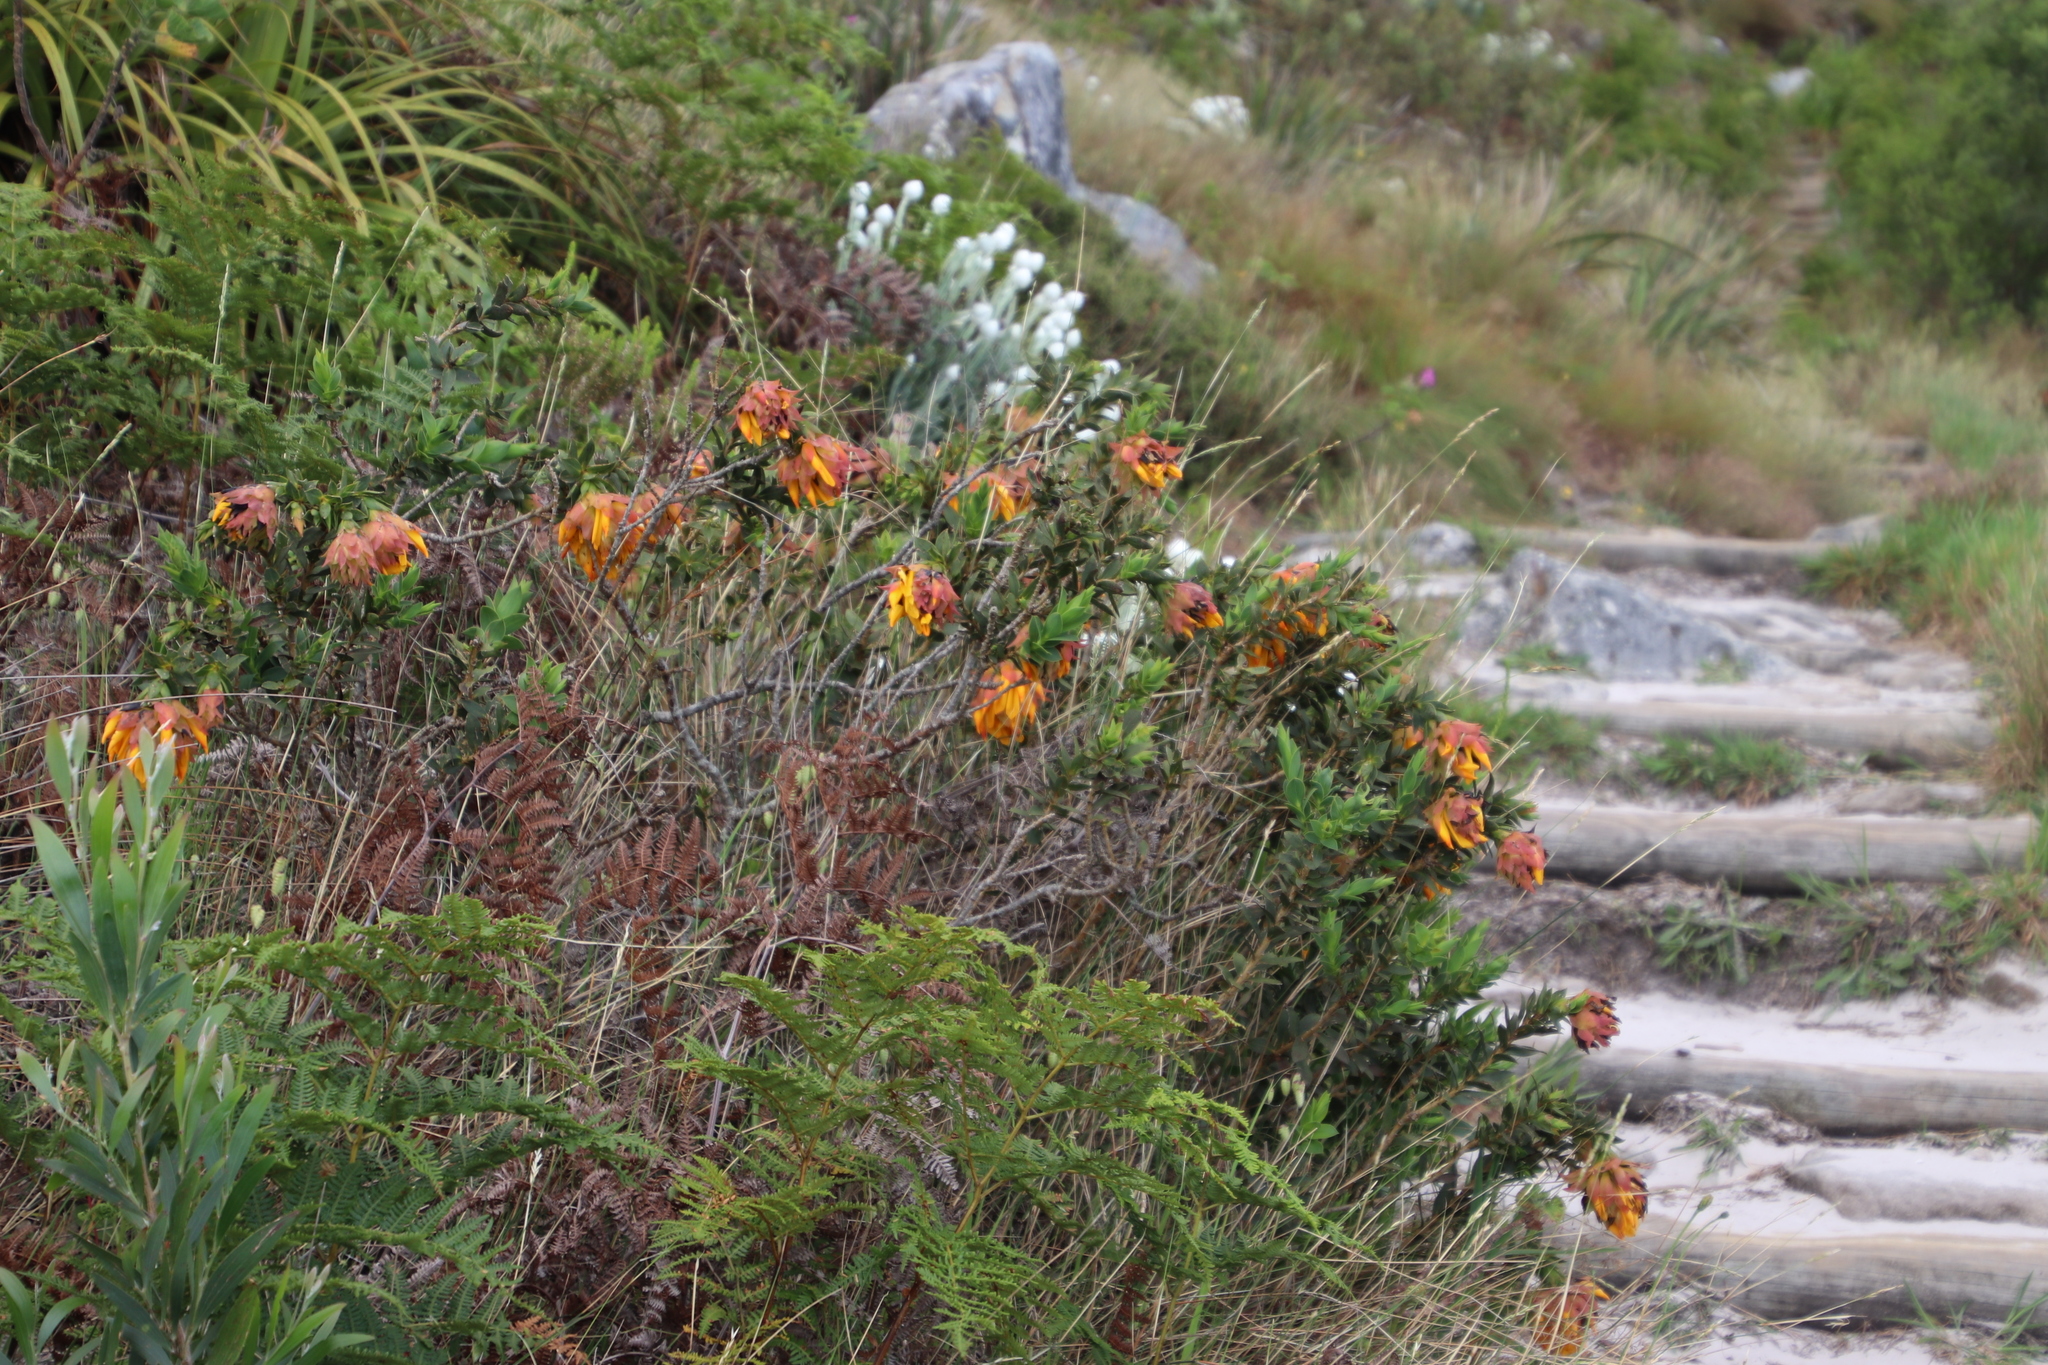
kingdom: Plantae
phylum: Tracheophyta
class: Magnoliopsida
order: Fabales
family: Fabaceae
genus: Liparia
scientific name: Liparia splendens
